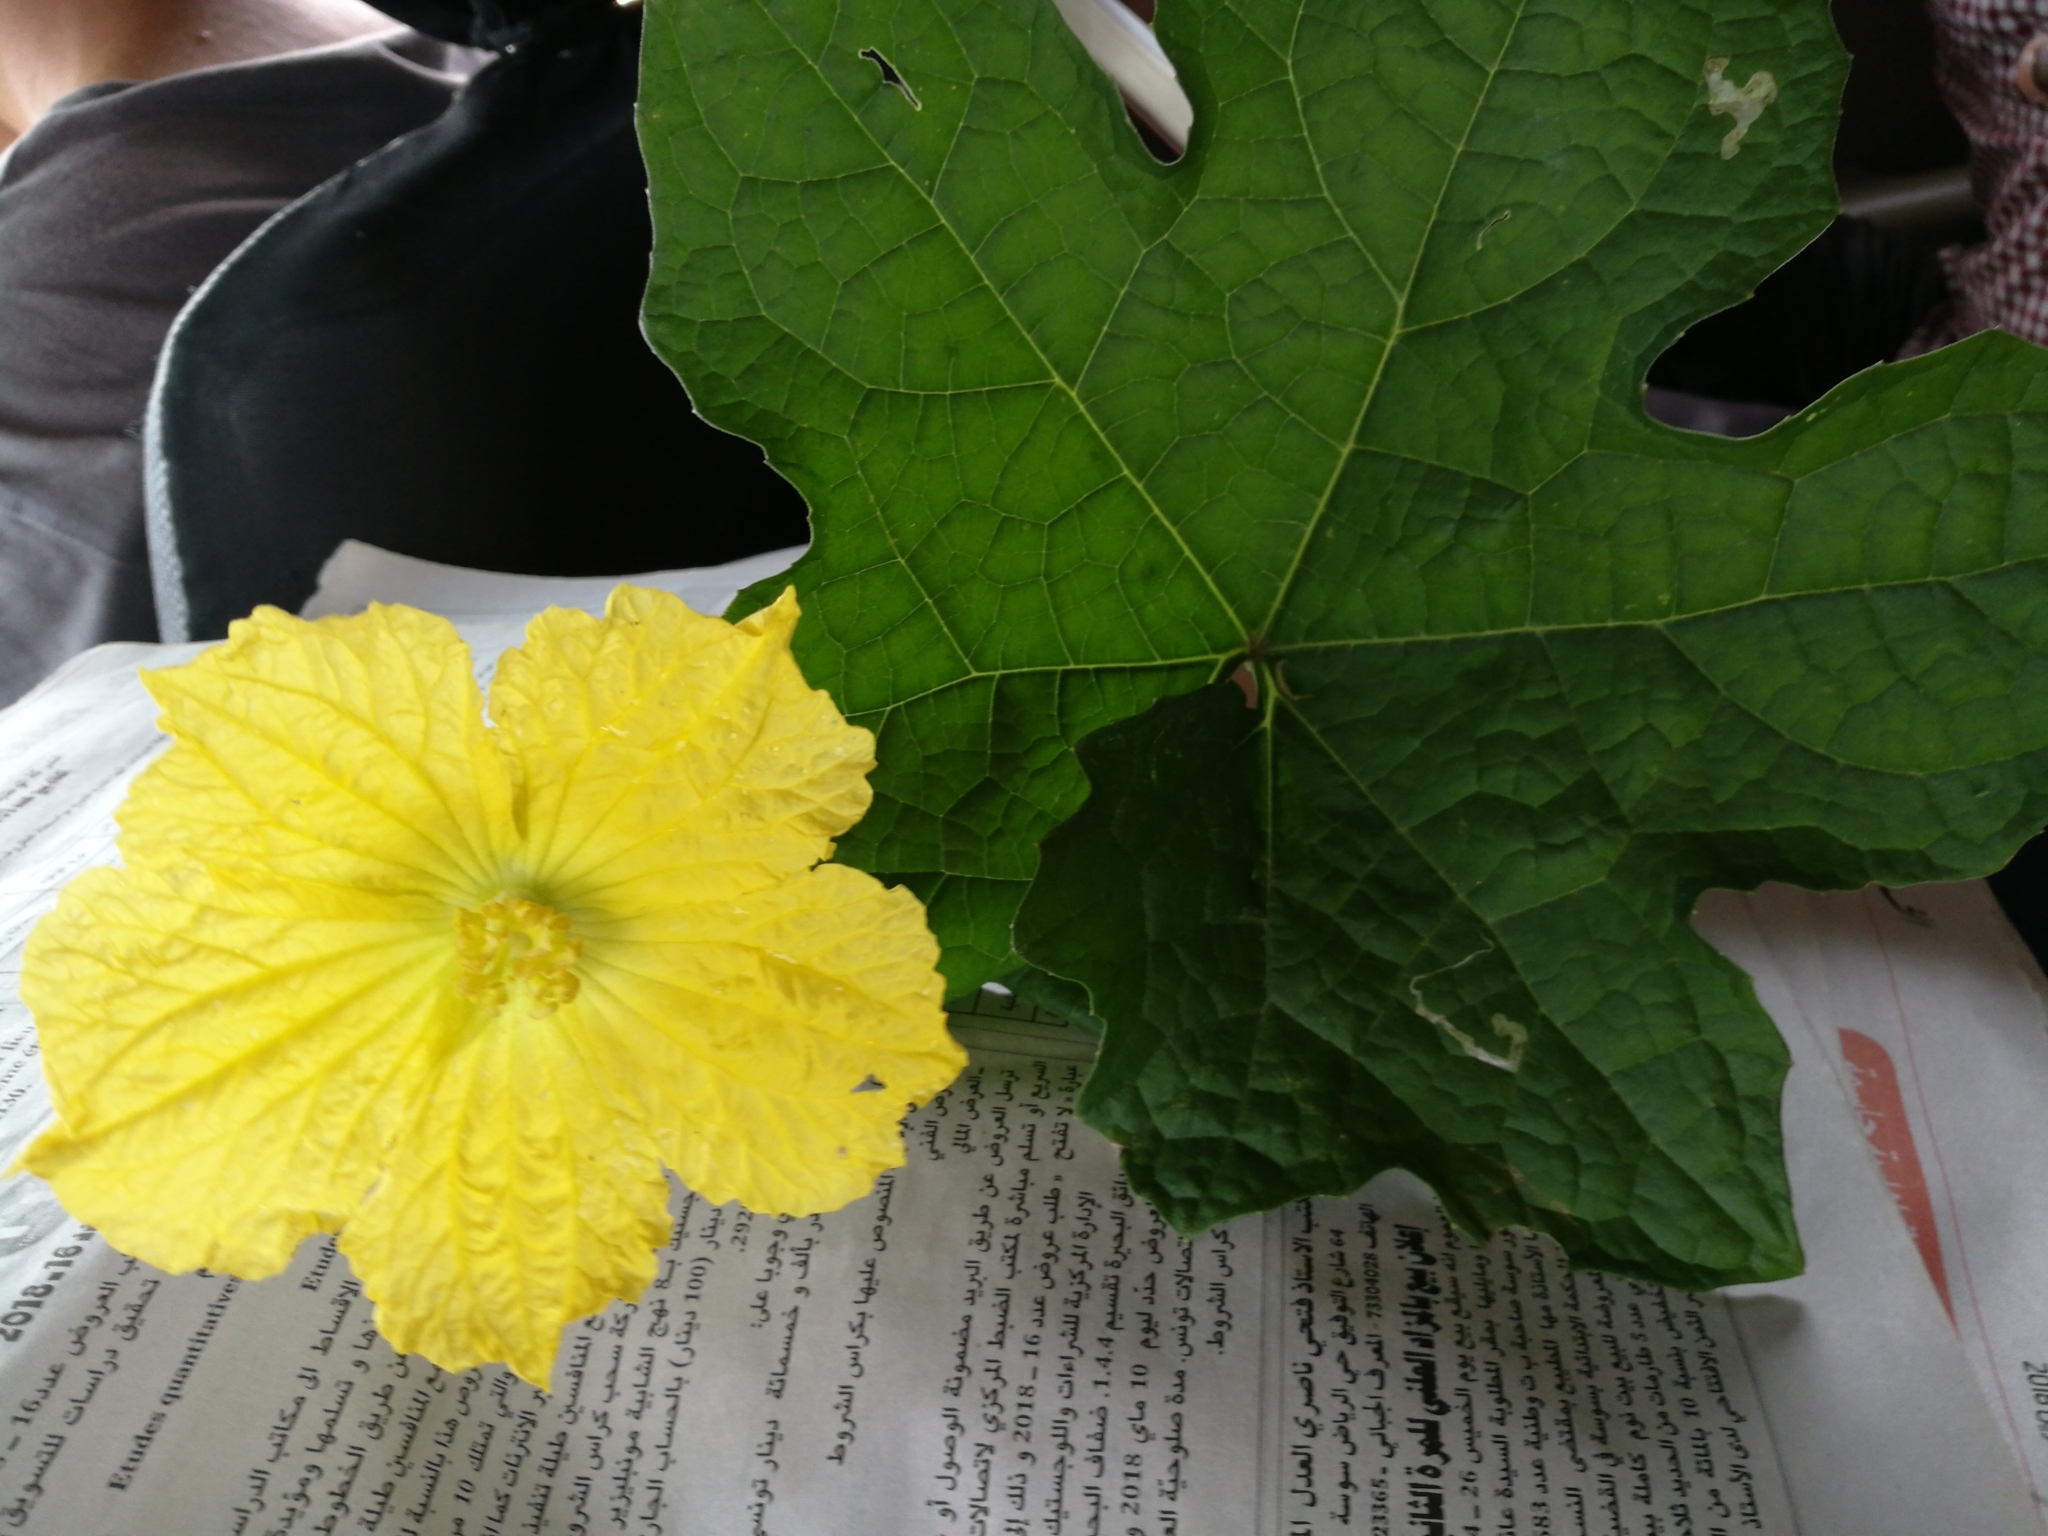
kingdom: Plantae
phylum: Tracheophyta
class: Magnoliopsida
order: Cucurbitales
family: Cucurbitaceae
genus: Luffa
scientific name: Luffa aegyptiaca
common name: Sponge gourd
